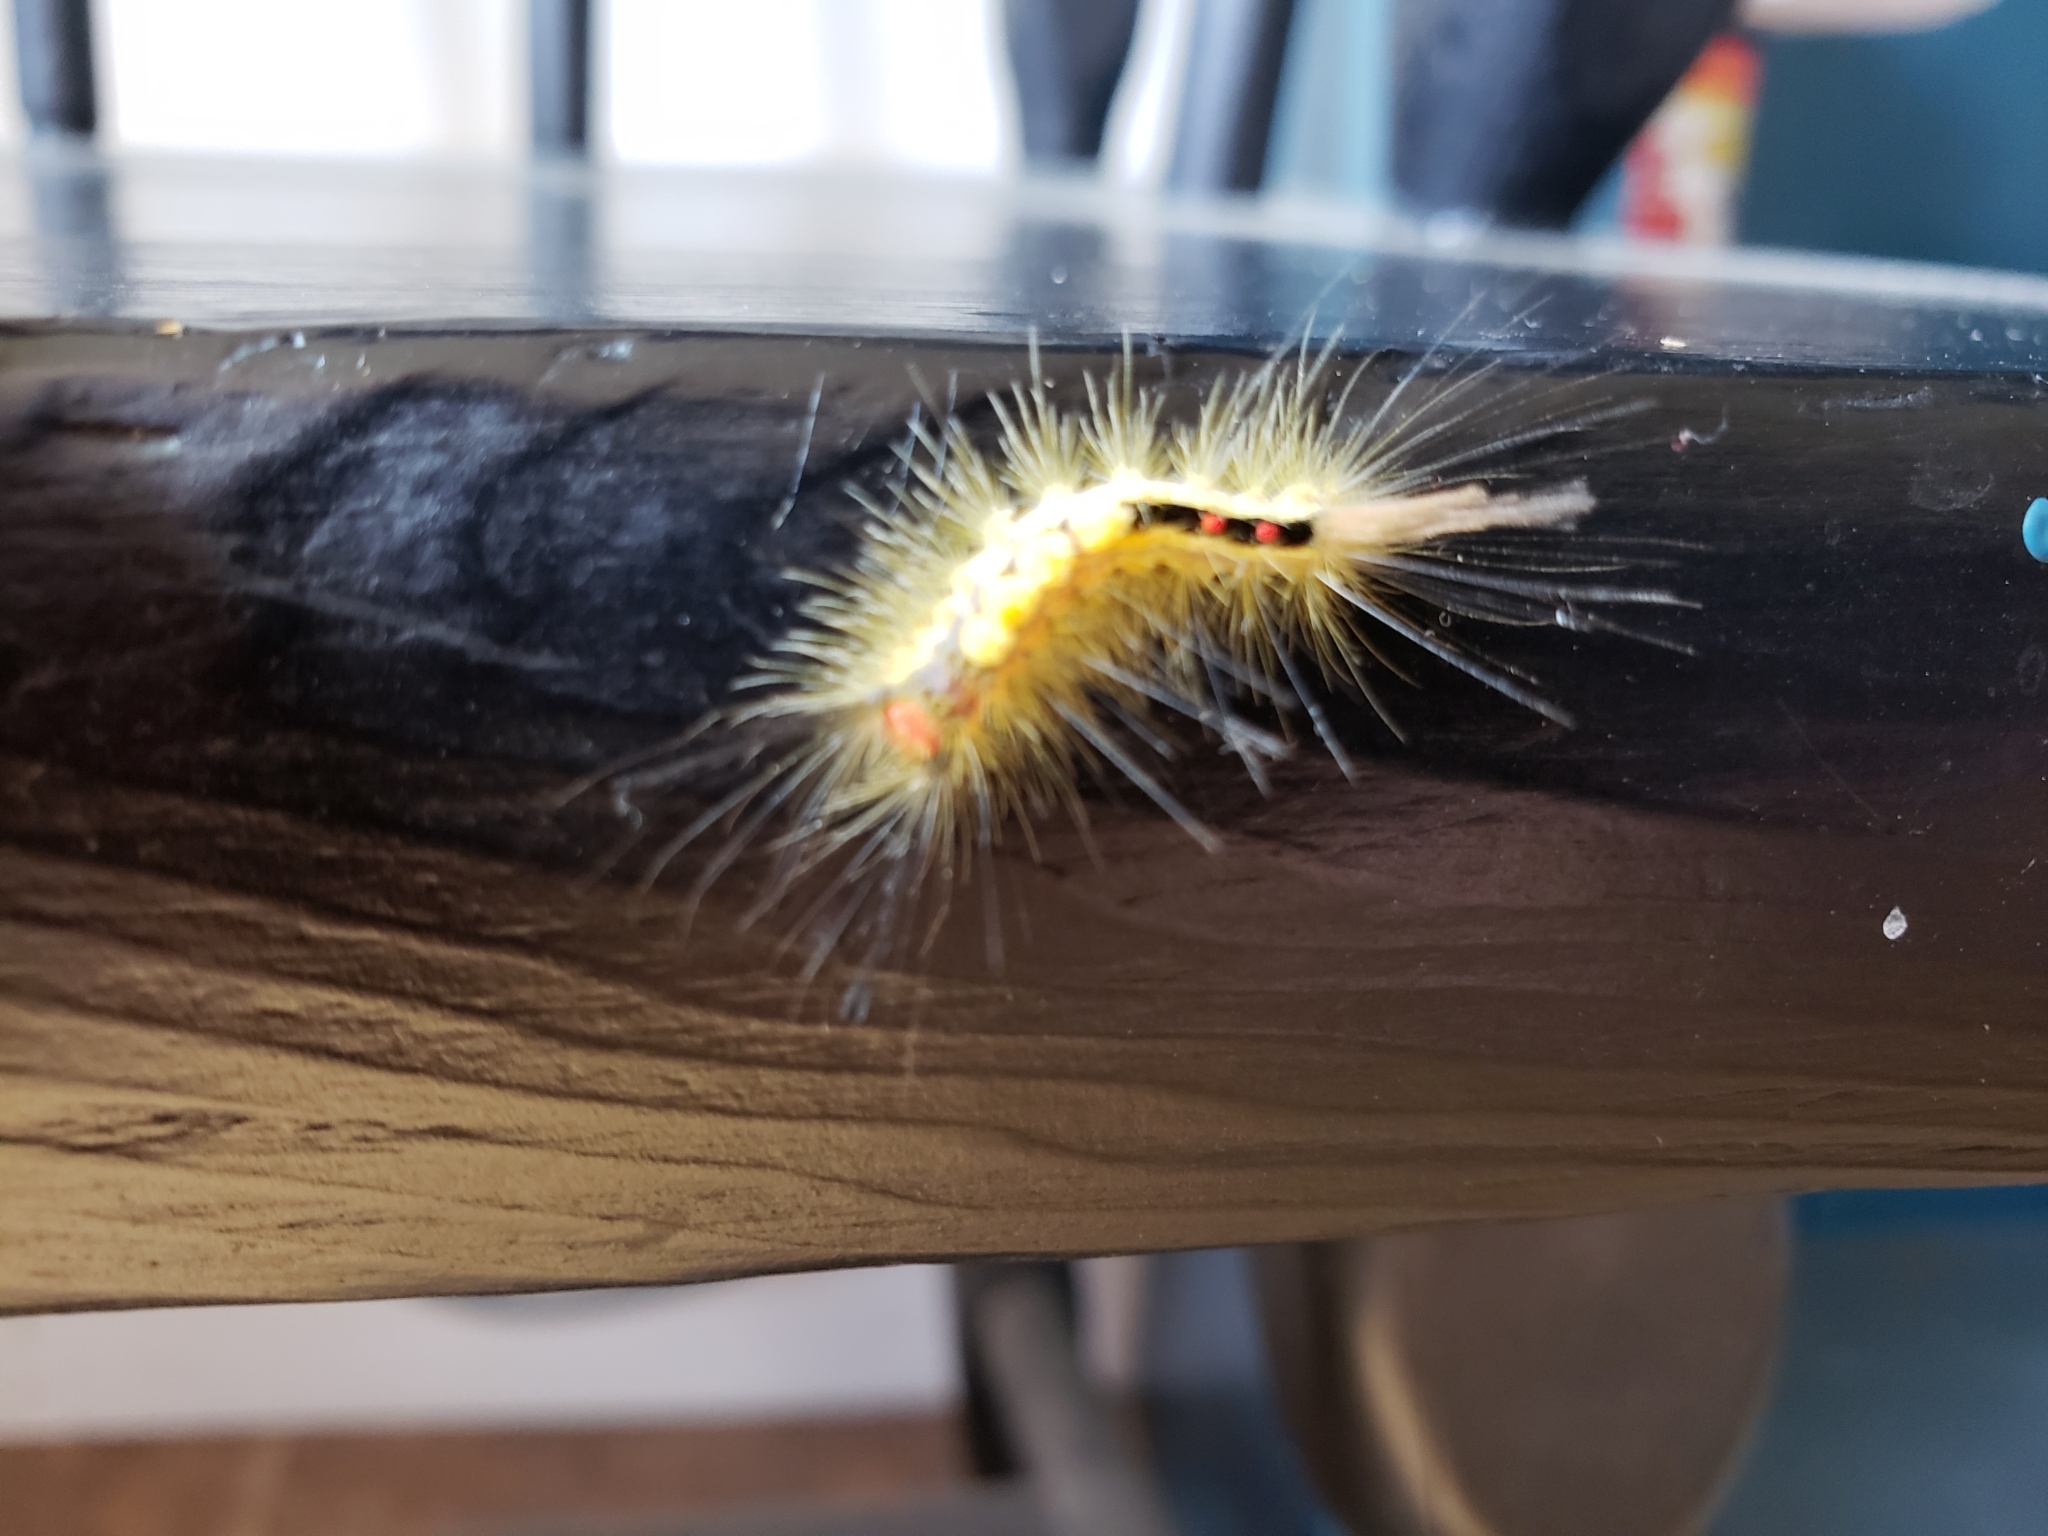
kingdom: Animalia
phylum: Arthropoda
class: Insecta
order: Lepidoptera
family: Erebidae
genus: Orgyia
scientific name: Orgyia leucostigma
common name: White-marked tussock moth
